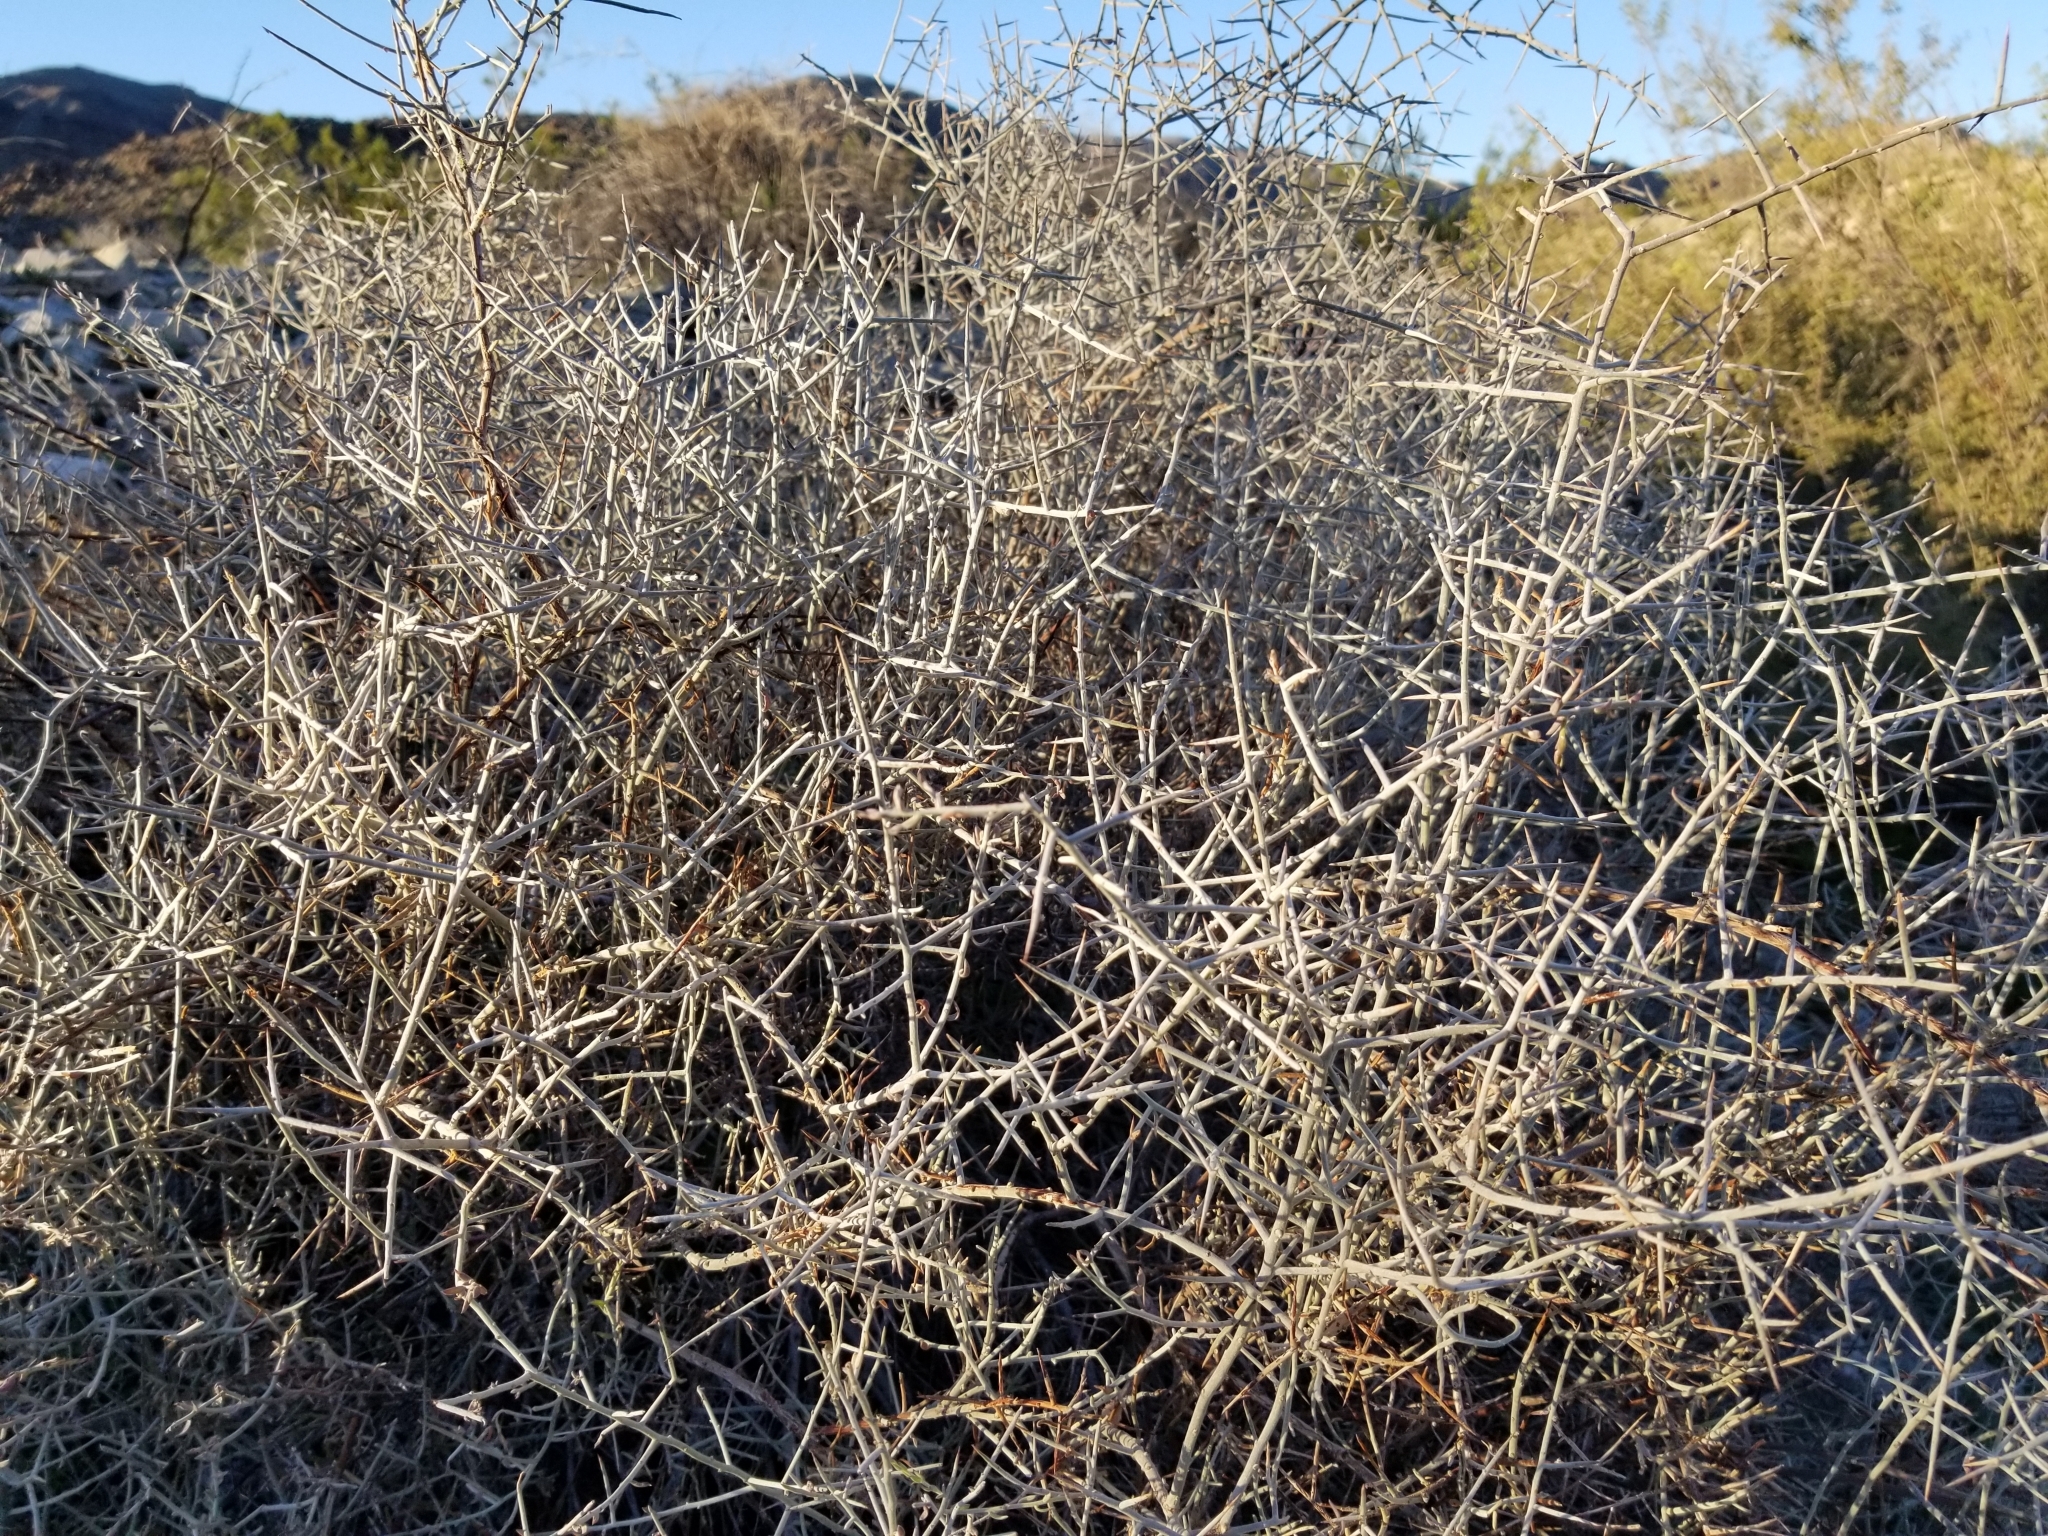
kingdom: Plantae
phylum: Tracheophyta
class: Magnoliopsida
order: Zygophyllales
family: Krameriaceae
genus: Krameria
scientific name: Krameria bicolor
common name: White ratany
